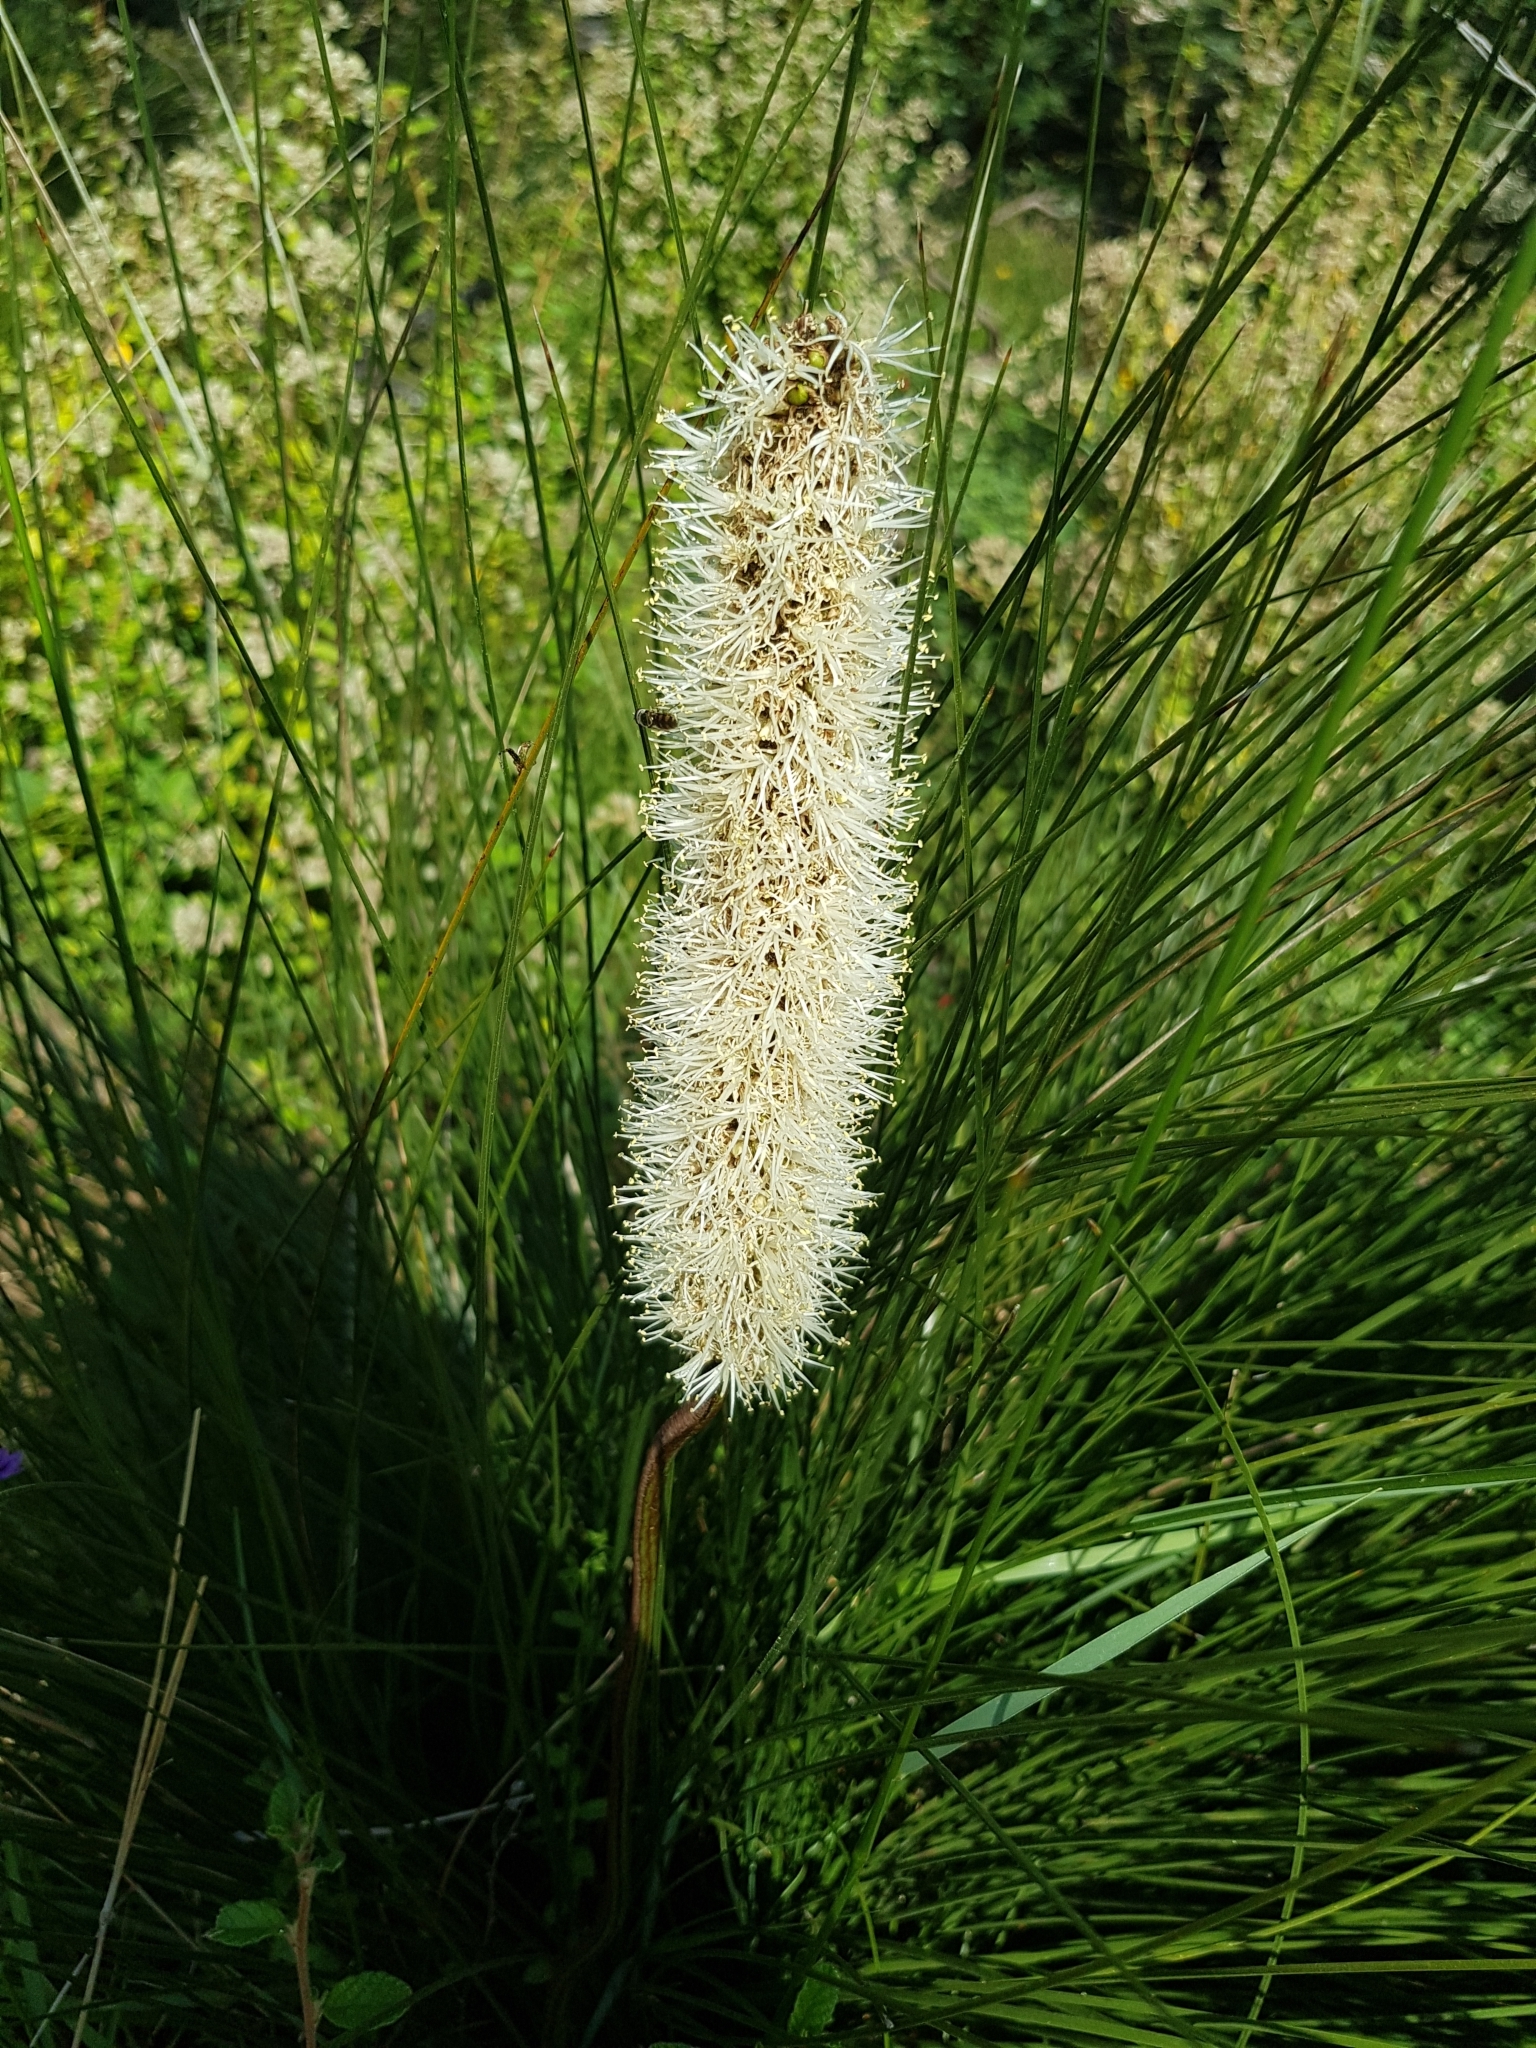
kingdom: Plantae
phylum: Tracheophyta
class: Liliopsida
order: Asparagales
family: Asphodelaceae
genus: Xanthorrhoea
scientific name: Xanthorrhoea minor
